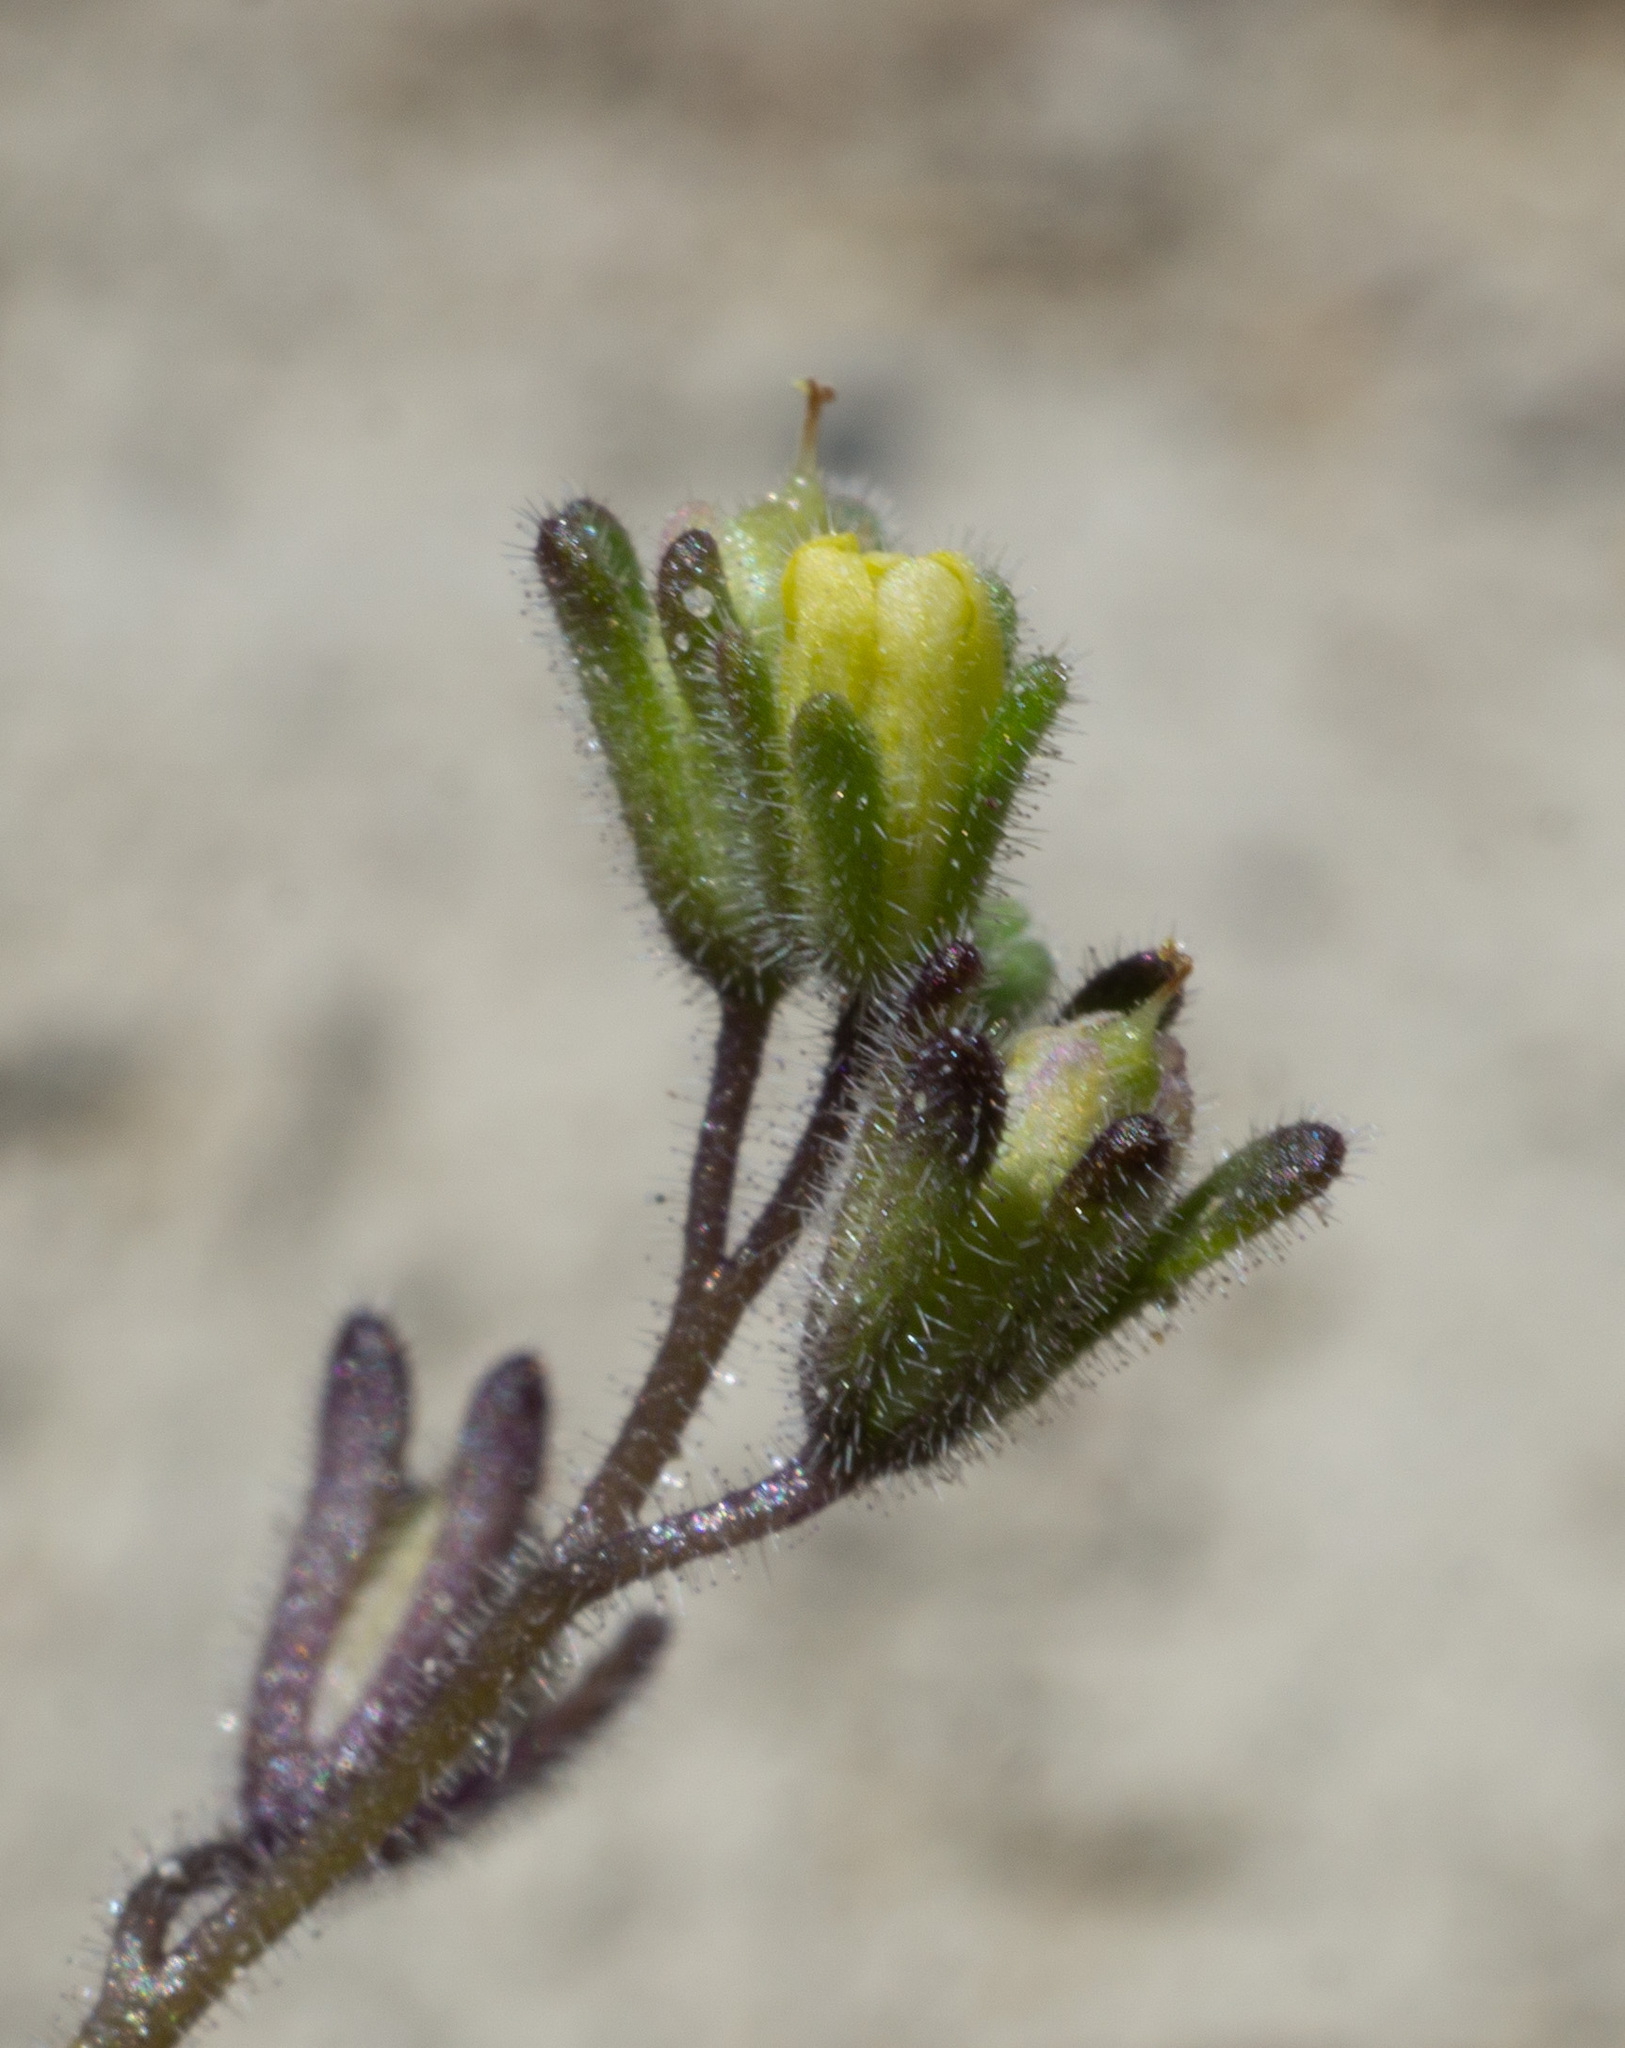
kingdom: Plantae
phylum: Tracheophyta
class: Magnoliopsida
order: Boraginales
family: Hydrophyllaceae
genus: Phacelia
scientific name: Phacelia inyoensis
